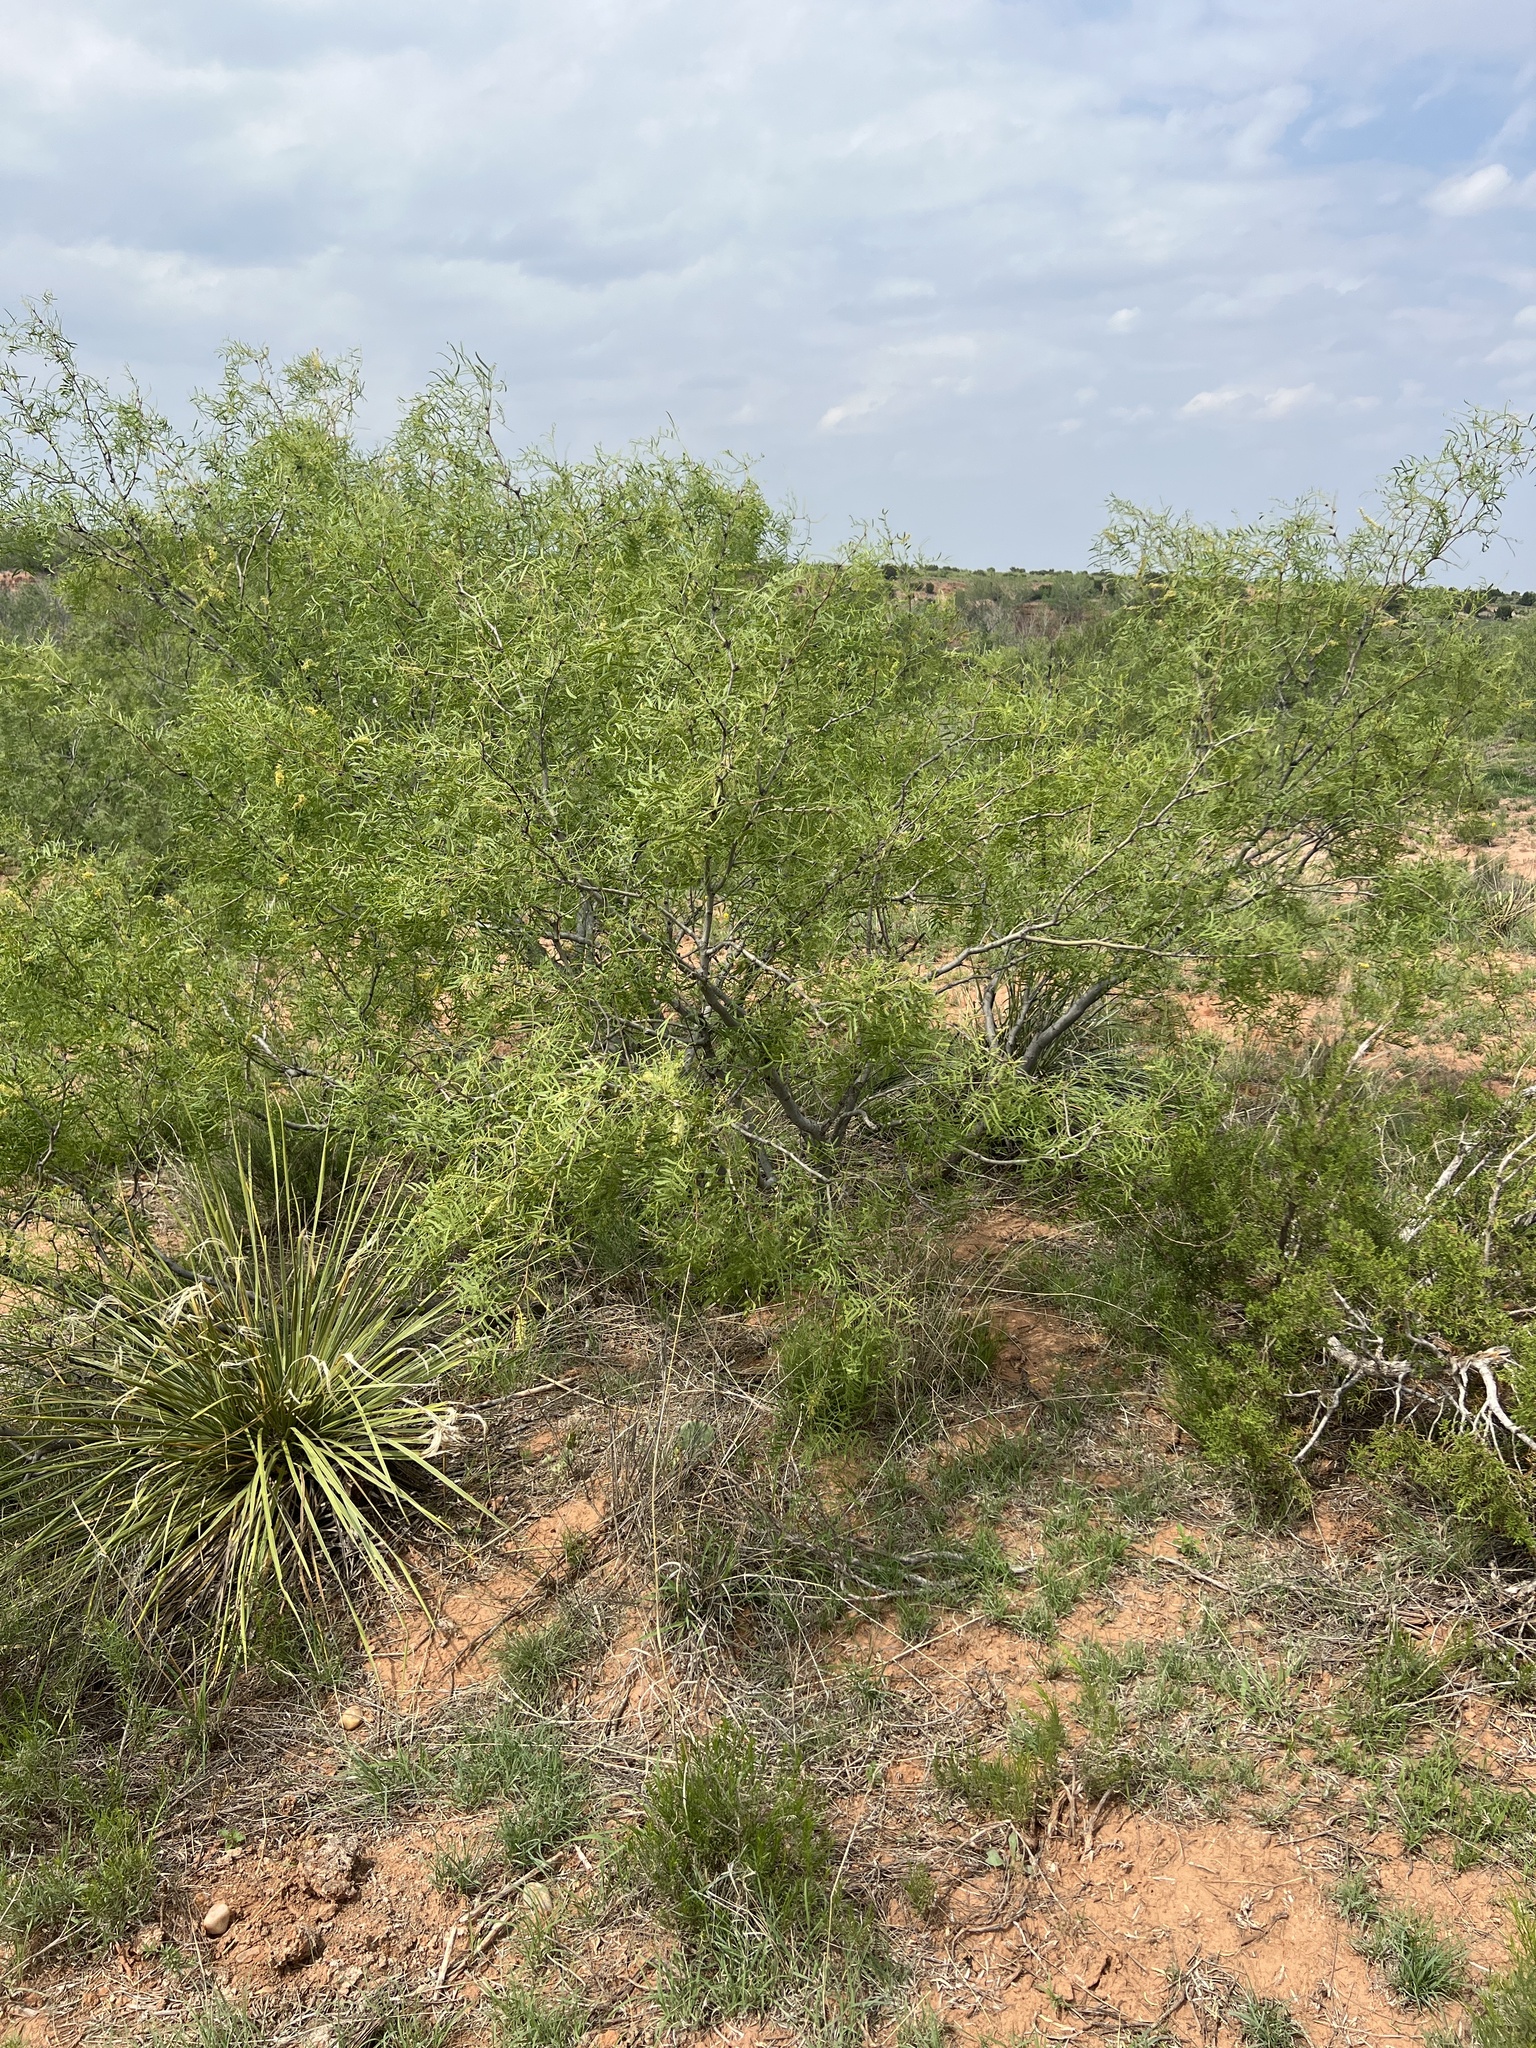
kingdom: Plantae
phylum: Tracheophyta
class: Magnoliopsida
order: Fabales
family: Fabaceae
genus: Prosopis
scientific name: Prosopis glandulosa
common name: Honey mesquite
